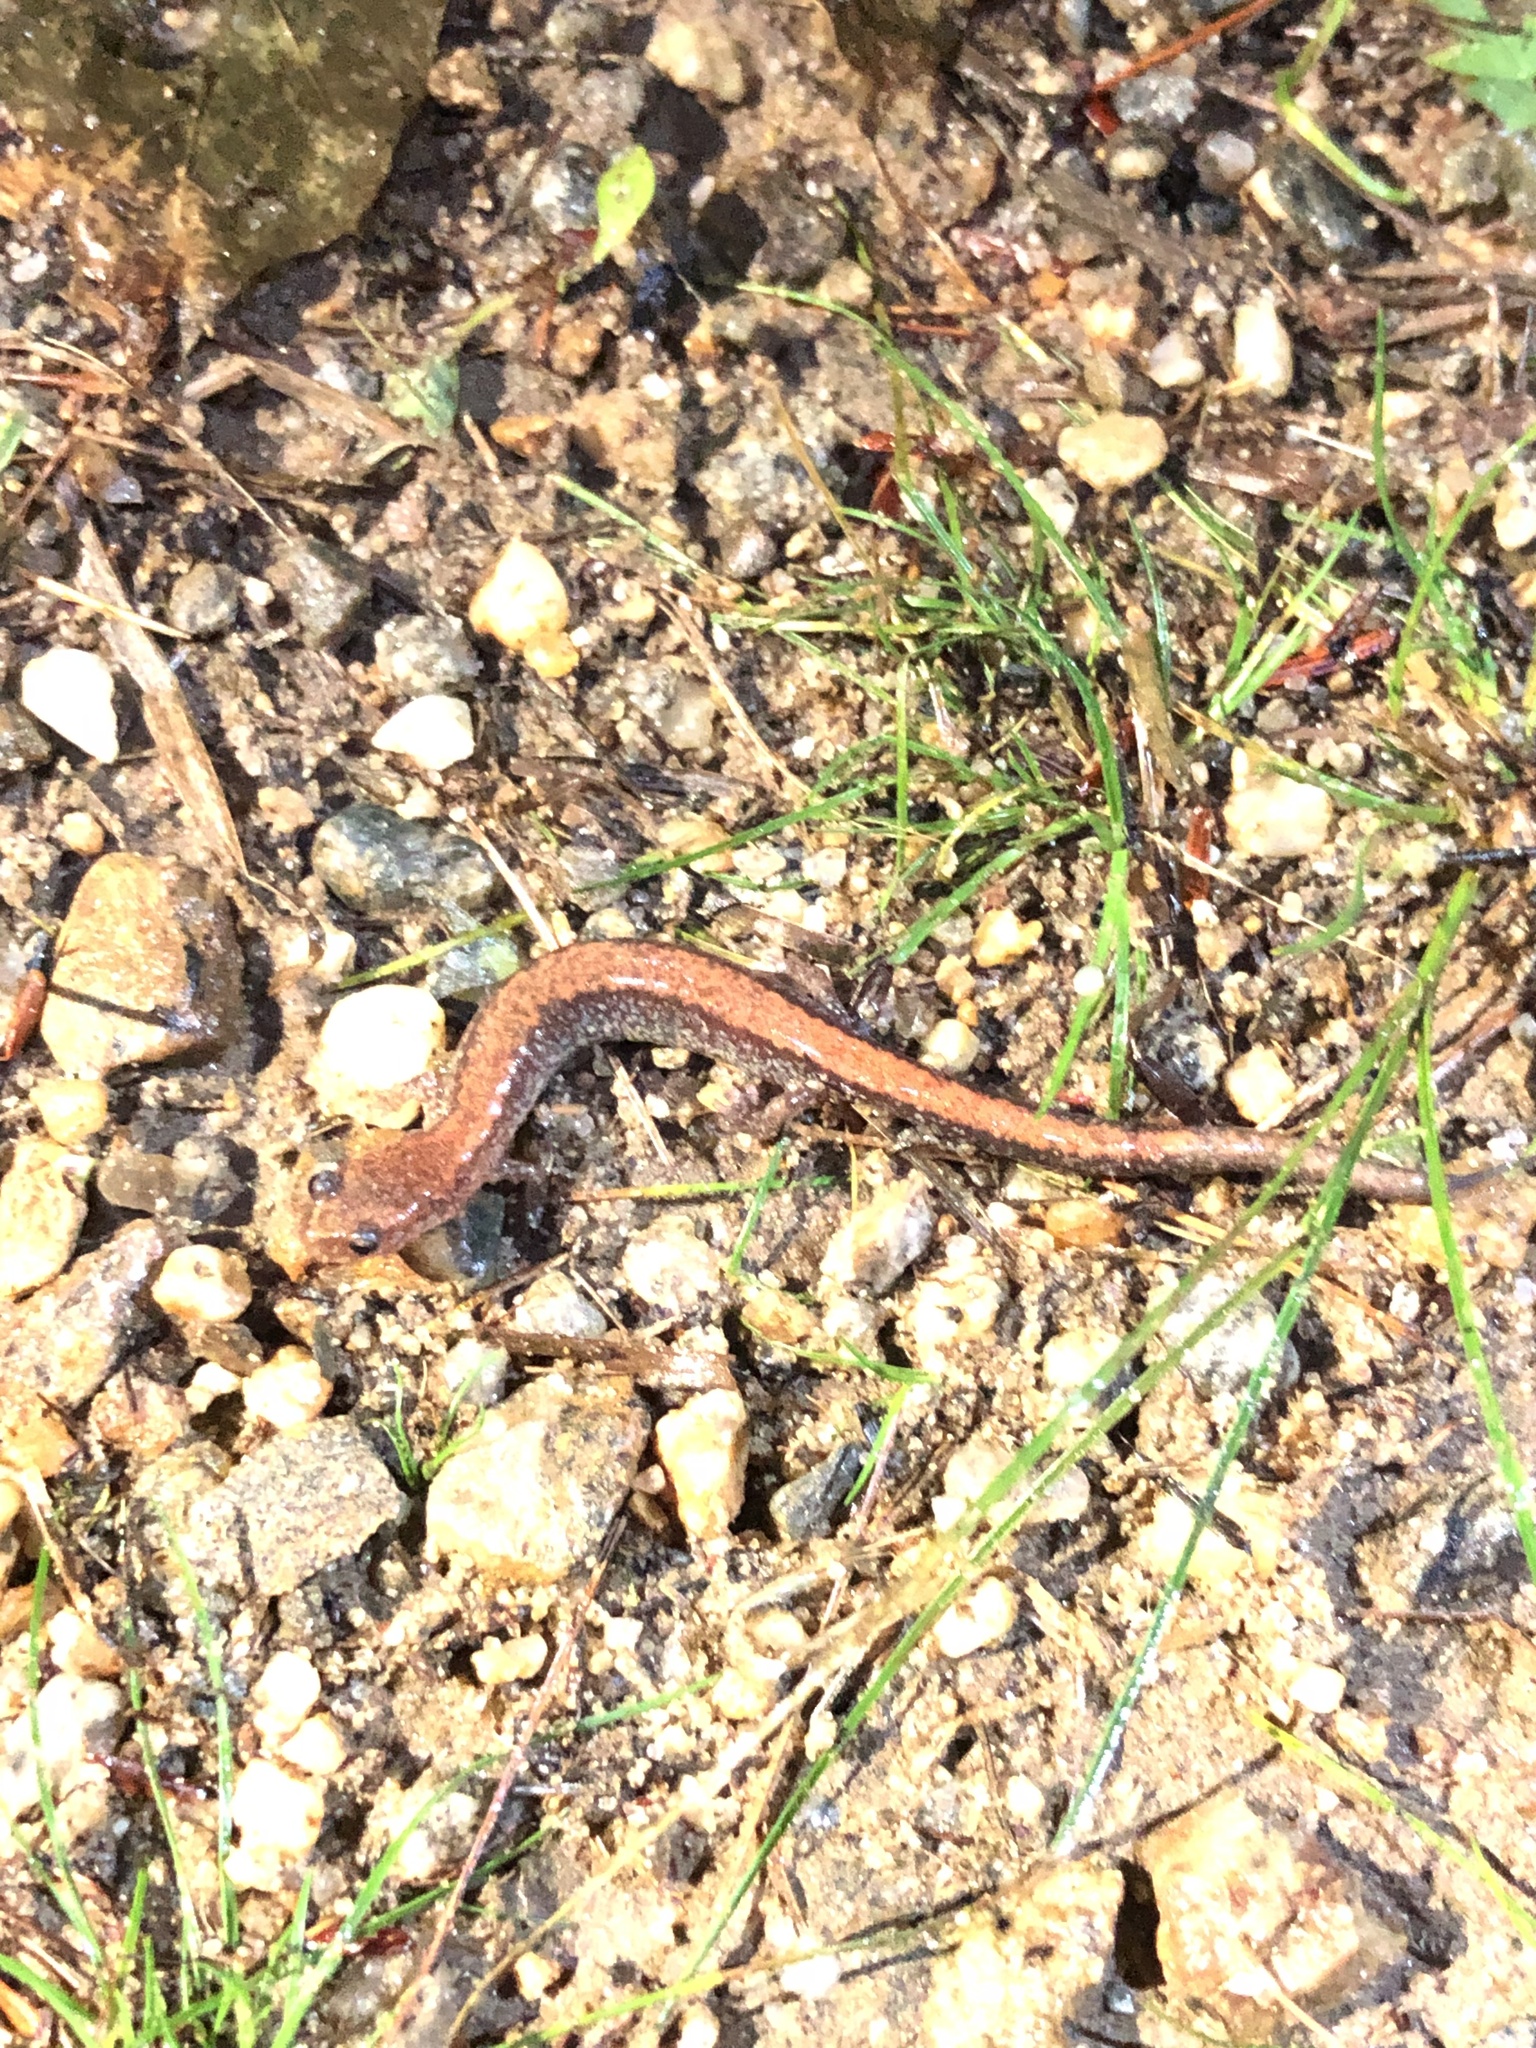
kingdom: Animalia
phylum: Chordata
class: Amphibia
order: Caudata
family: Plethodontidae
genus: Plethodon
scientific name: Plethodon cinereus
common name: Redback salamander
